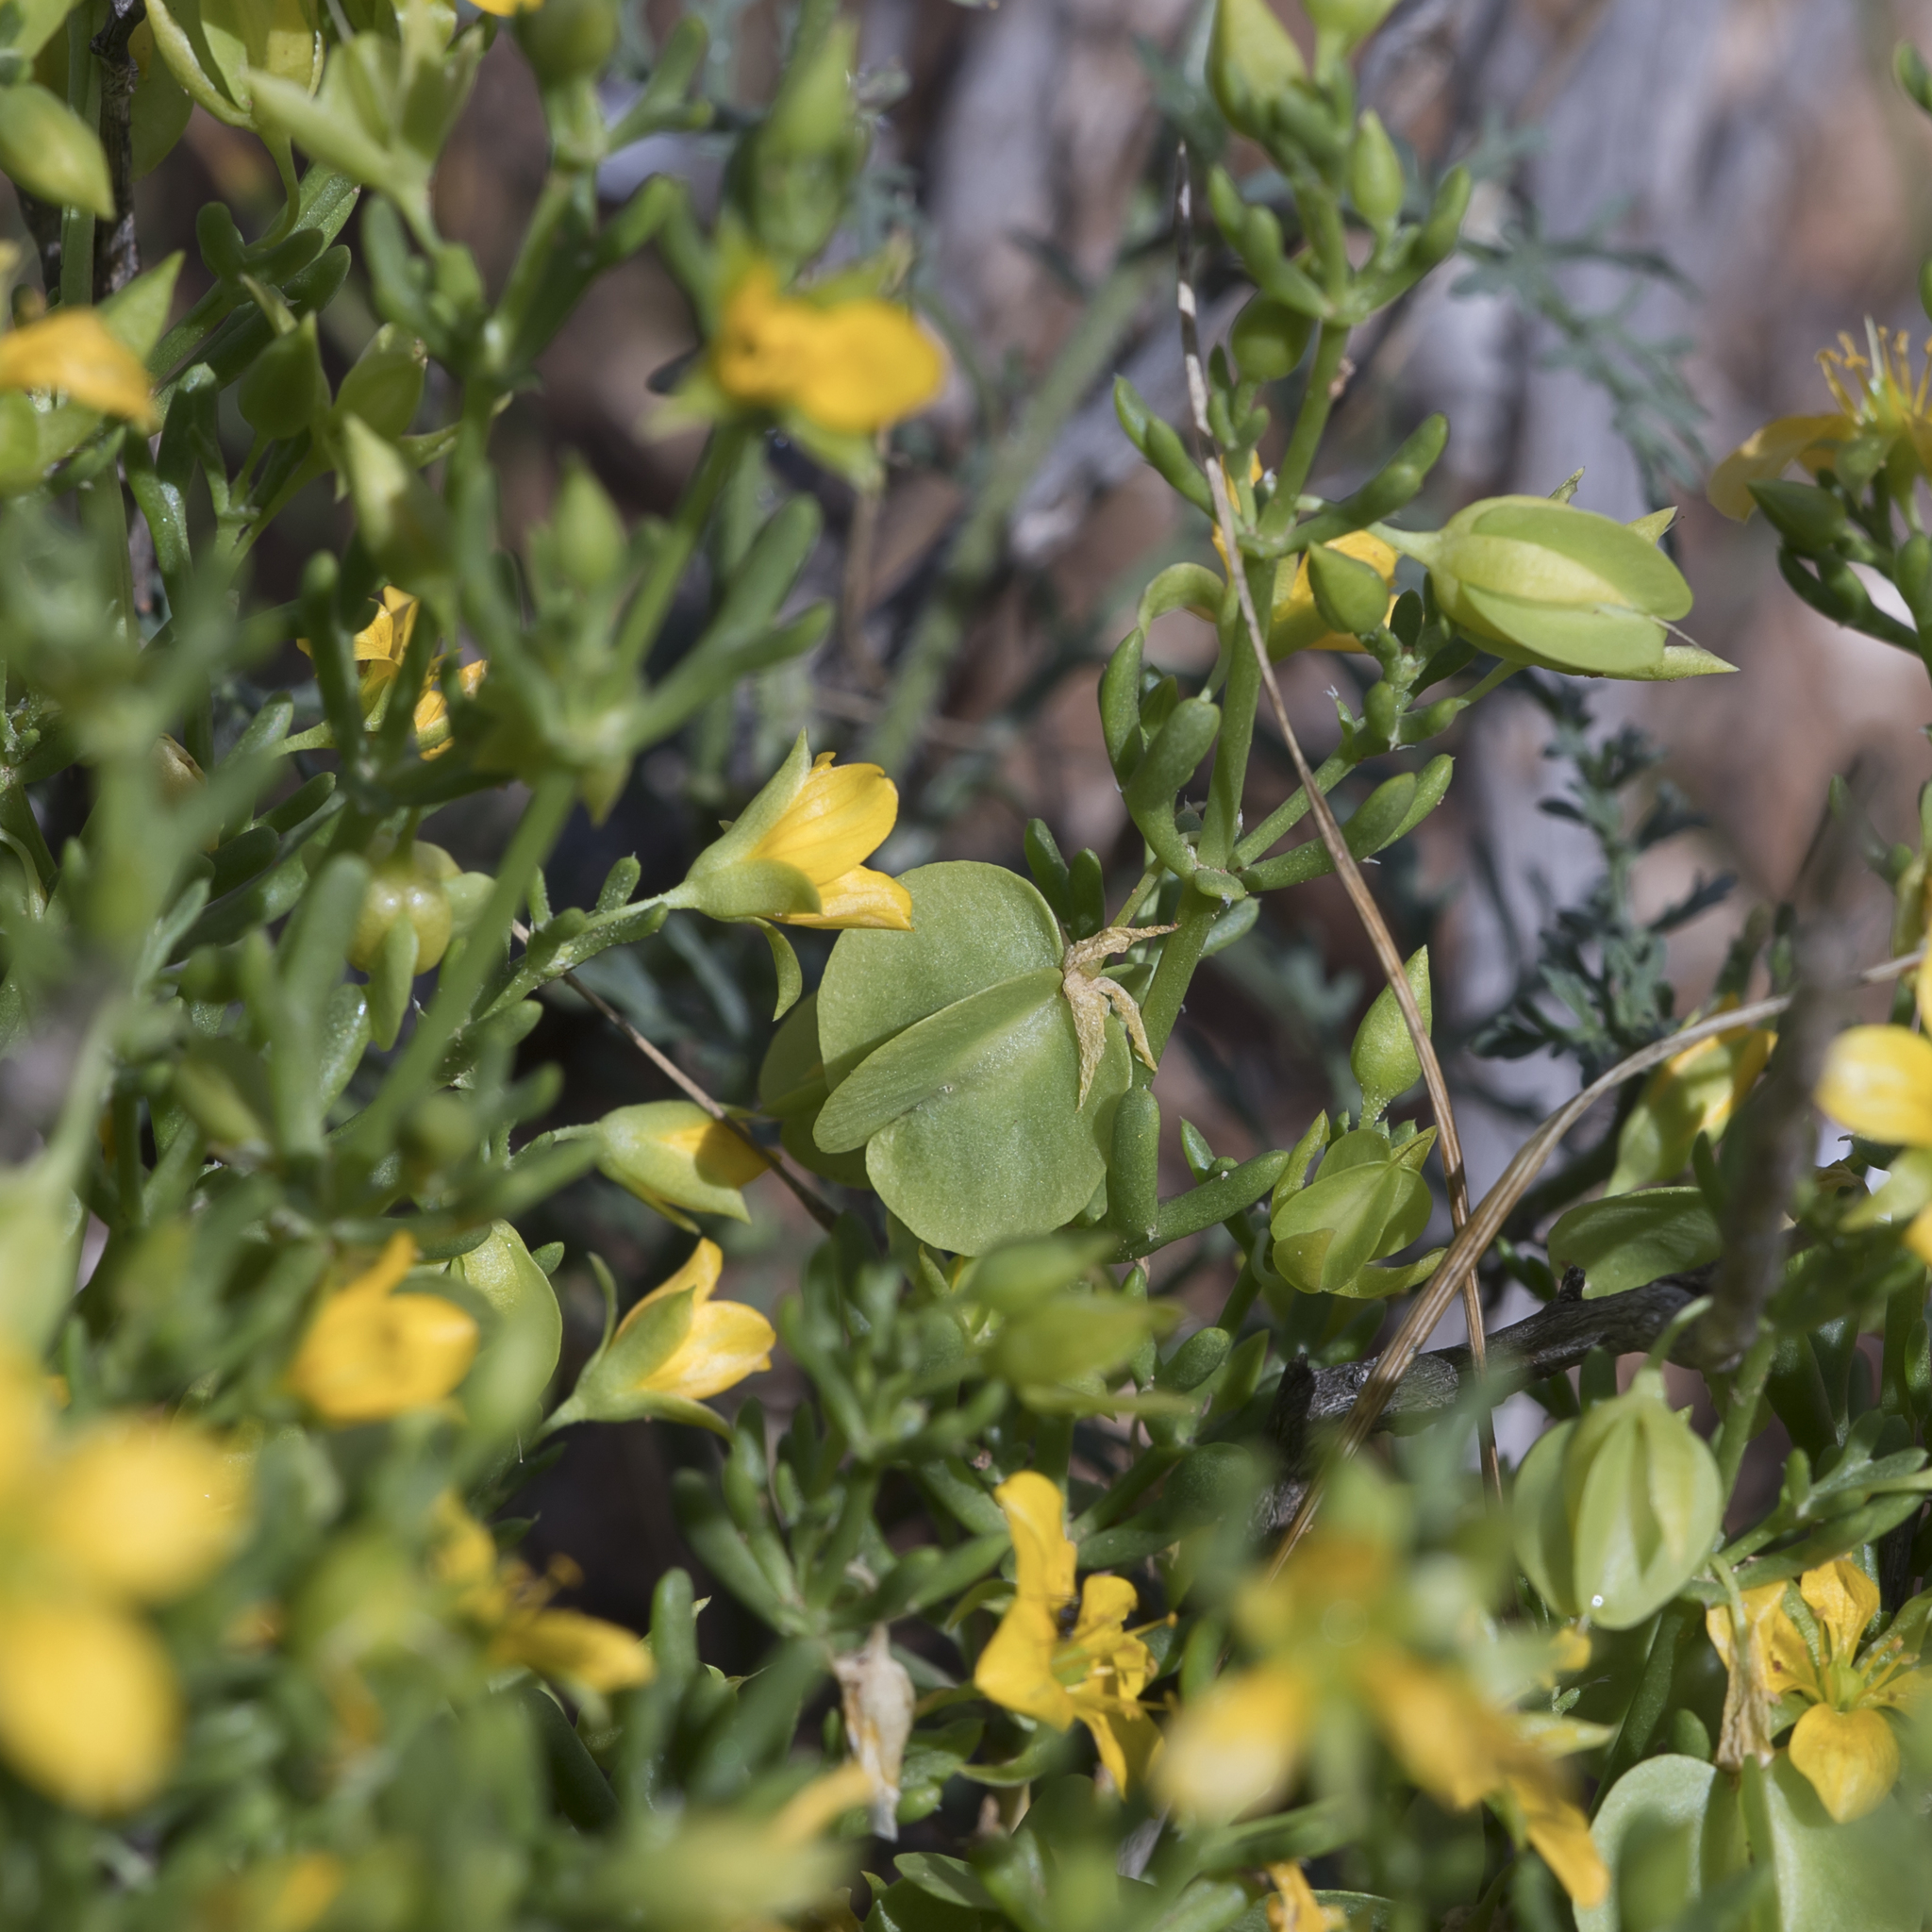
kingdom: Plantae
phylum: Tracheophyta
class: Magnoliopsida
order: Zygophyllales
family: Zygophyllaceae
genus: Roepera
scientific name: Roepera aurantiaca
